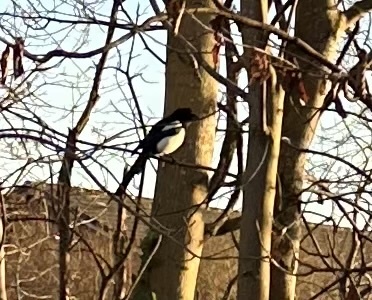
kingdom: Animalia
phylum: Chordata
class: Aves
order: Passeriformes
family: Corvidae
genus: Pica
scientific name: Pica pica
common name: Eurasian magpie
